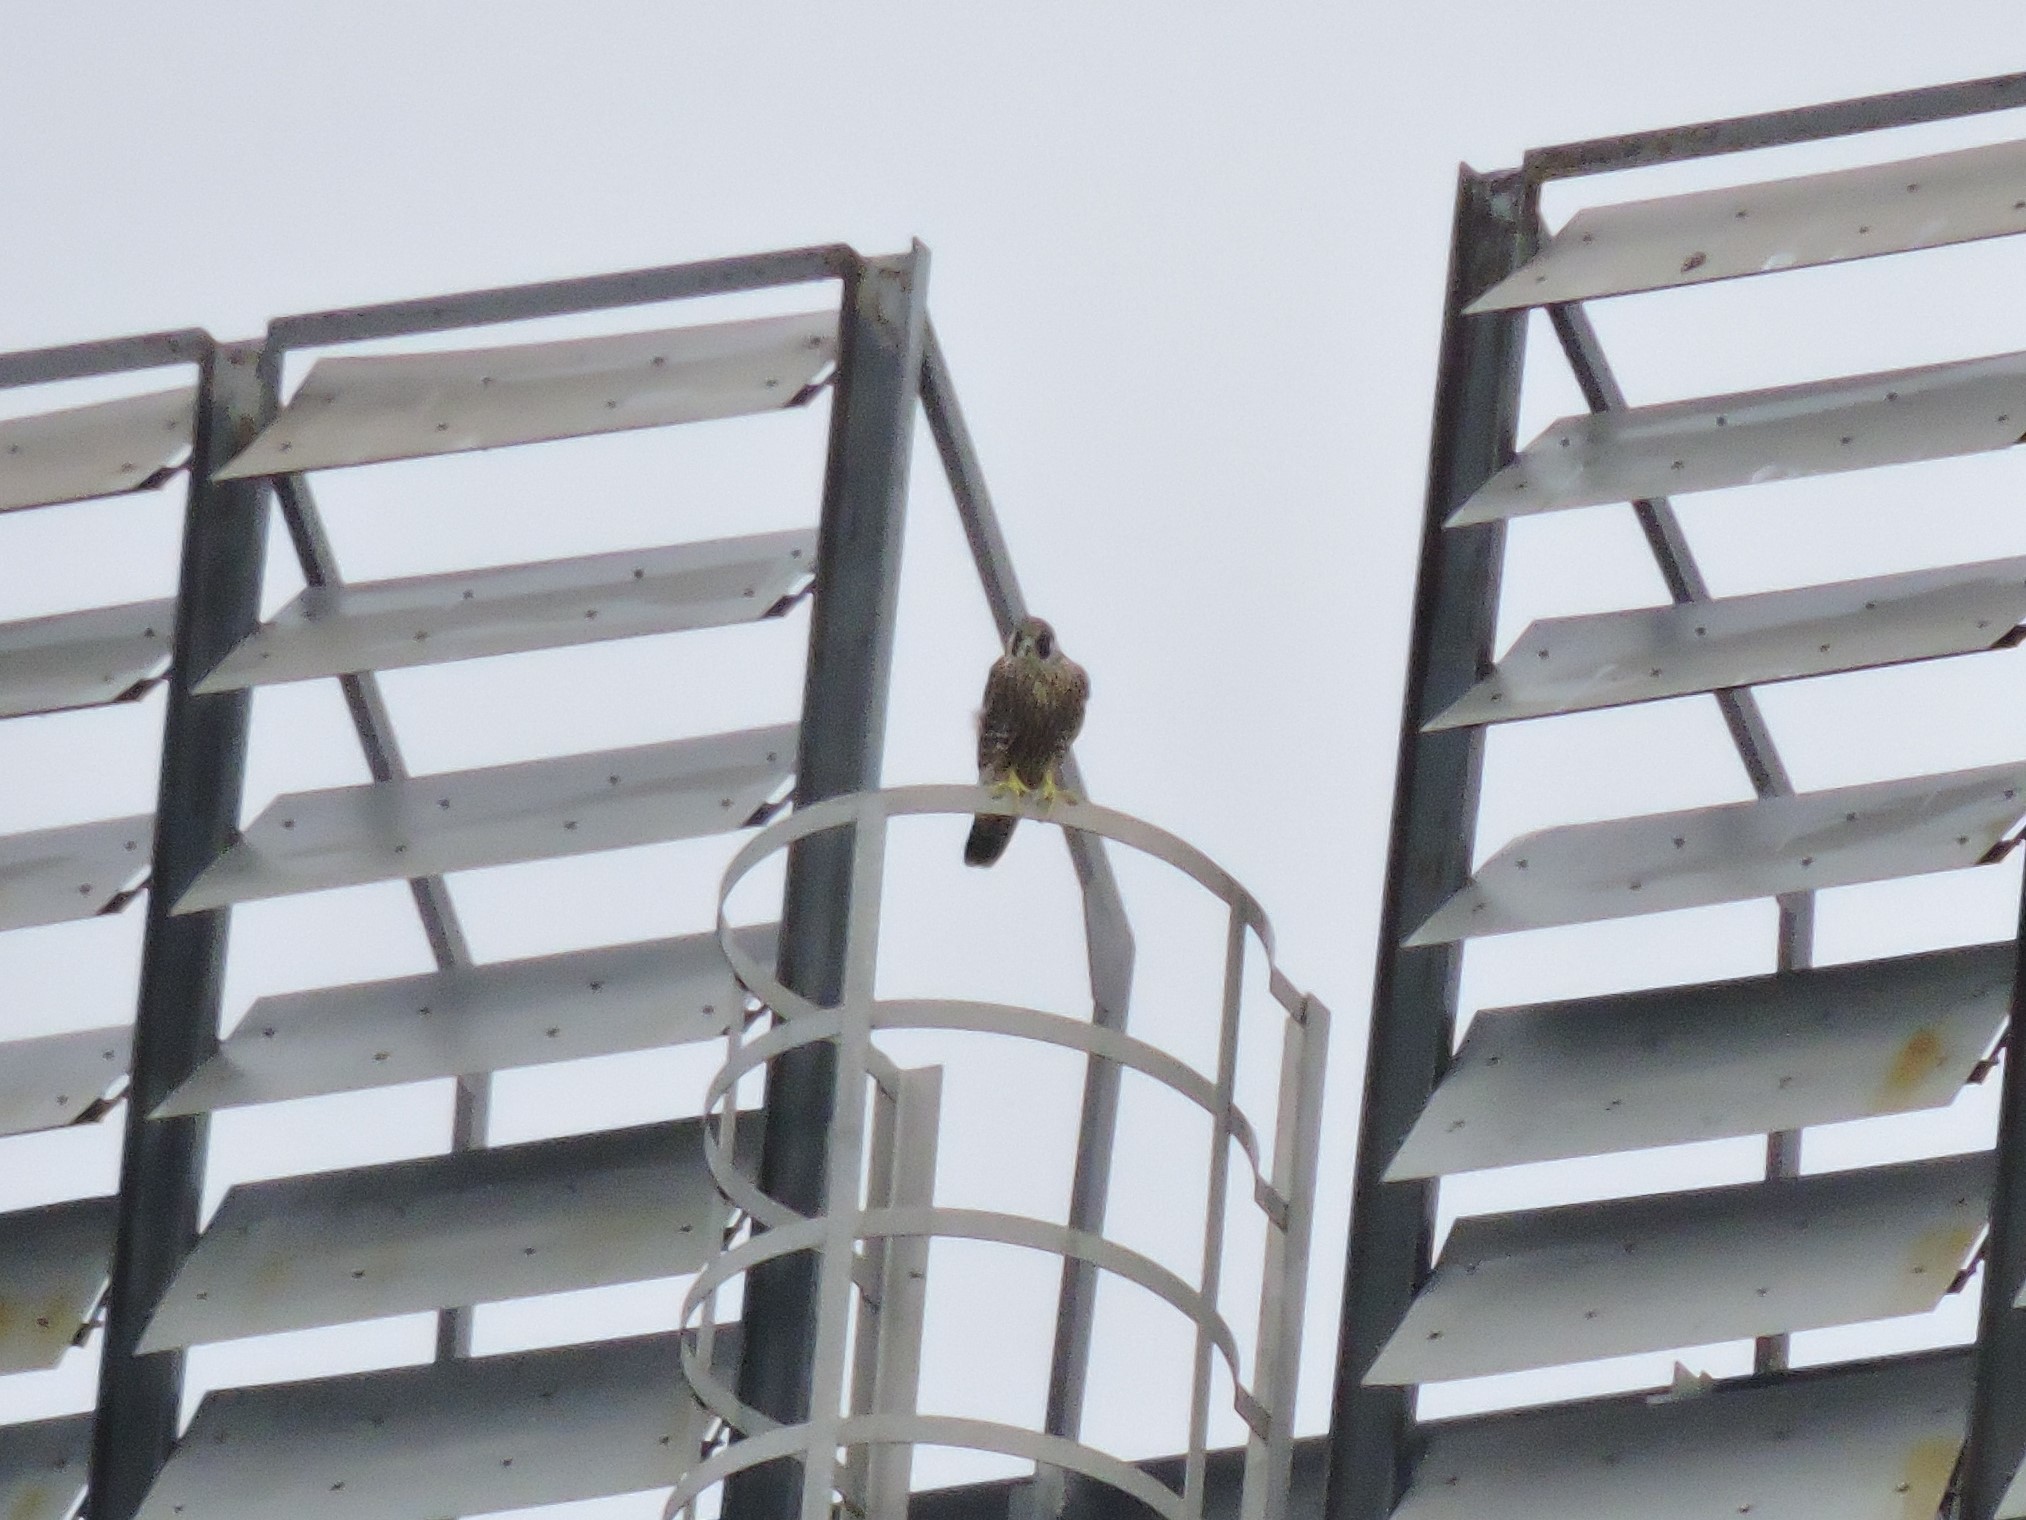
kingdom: Animalia
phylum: Chordata
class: Aves
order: Falconiformes
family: Falconidae
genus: Falco
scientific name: Falco peregrinus
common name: Peregrine falcon
